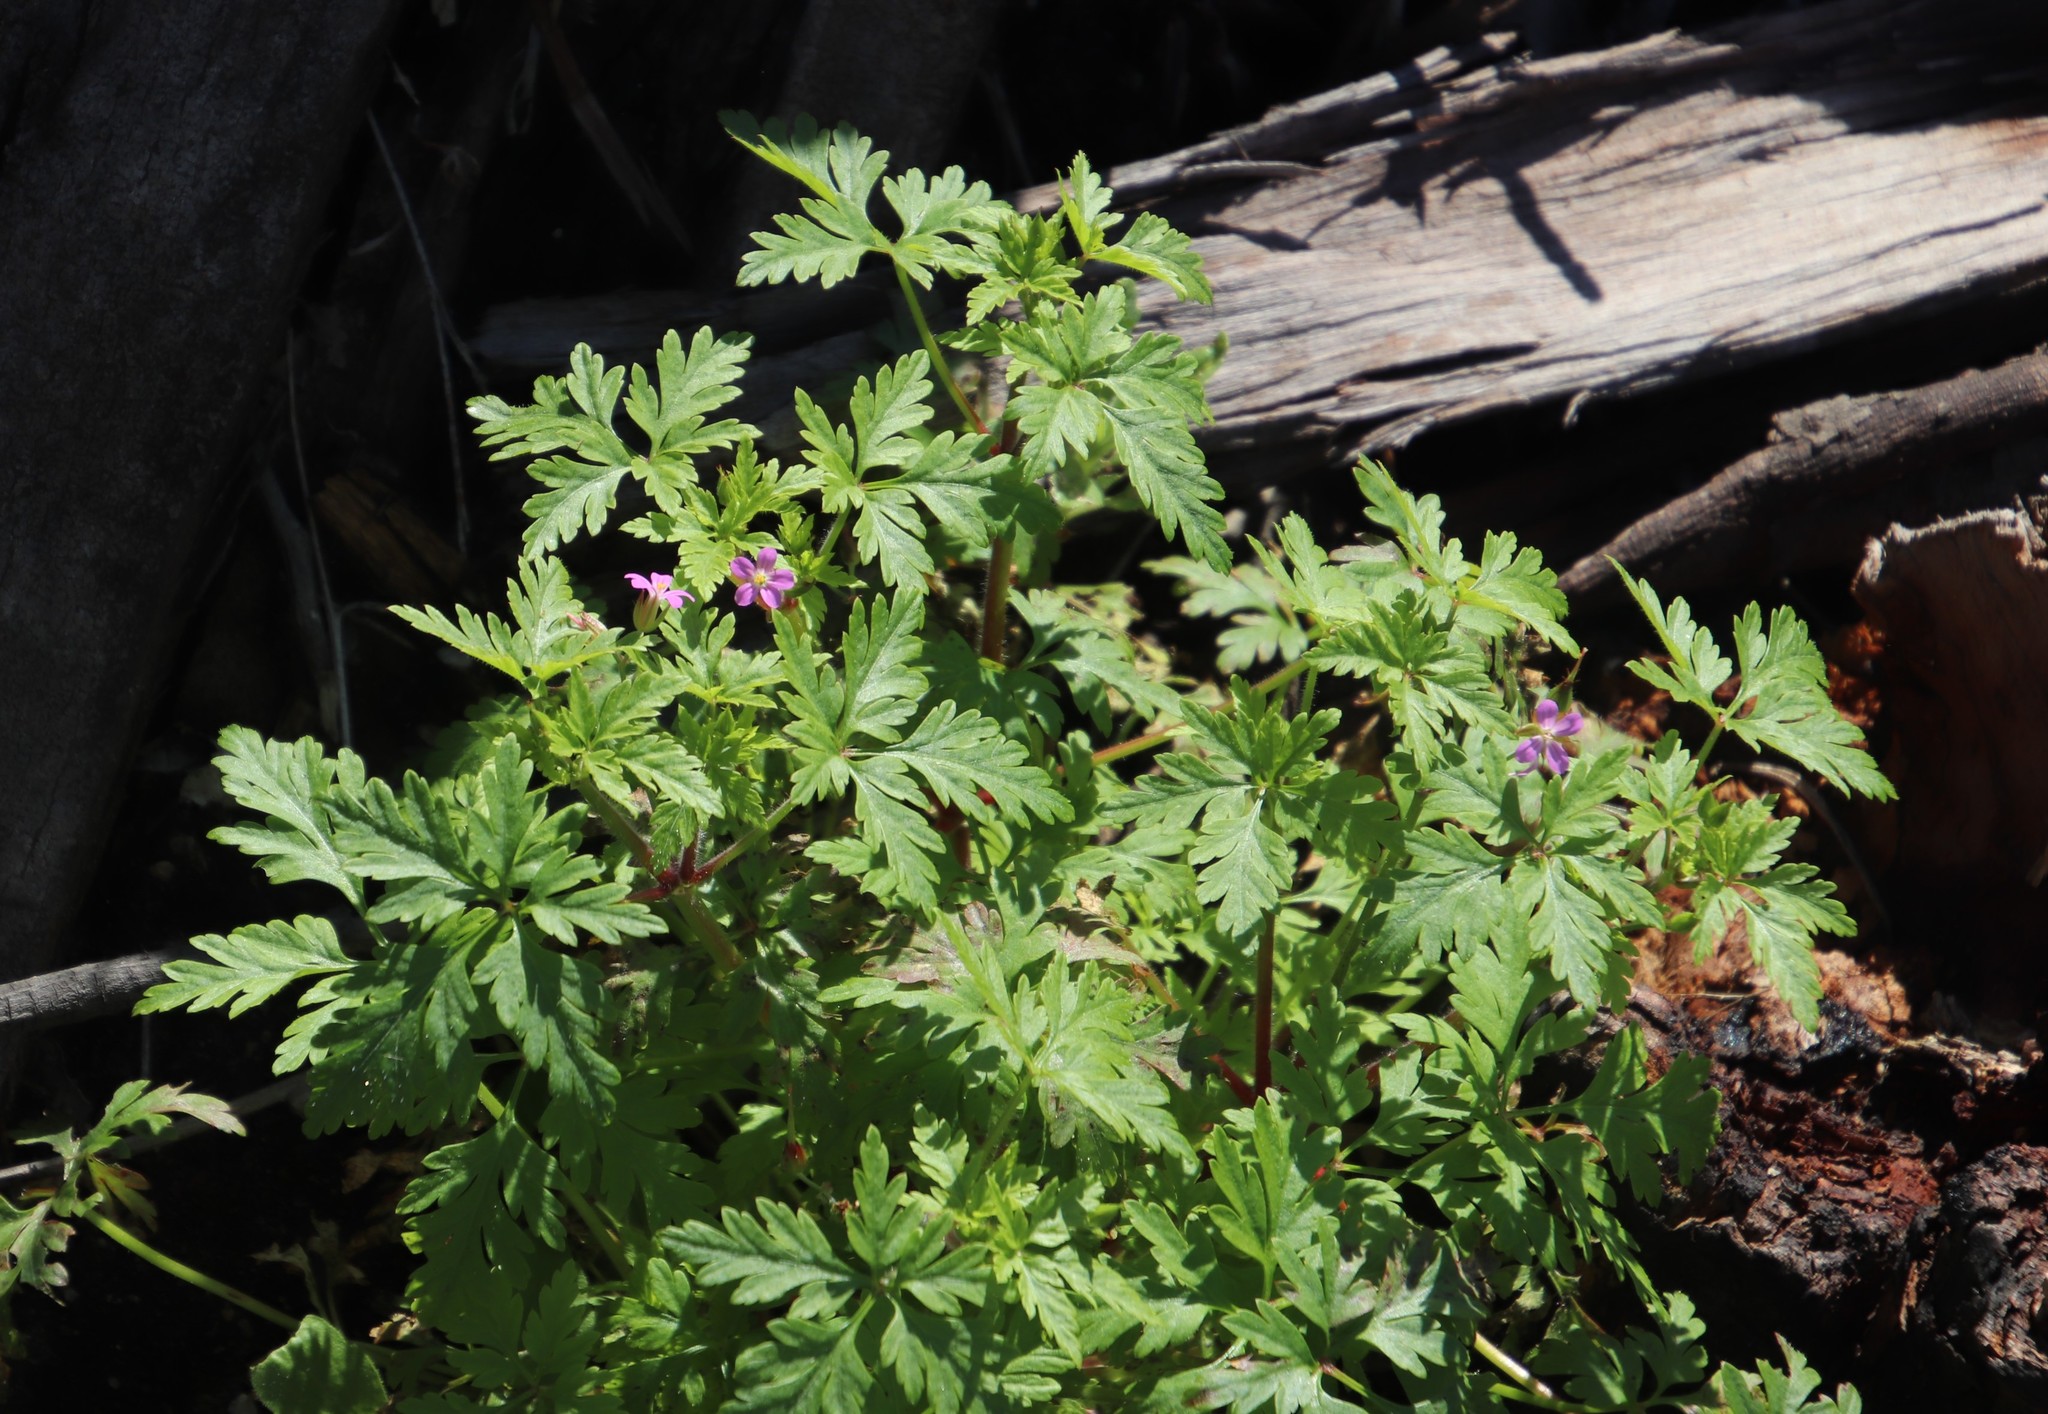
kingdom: Plantae
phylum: Tracheophyta
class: Magnoliopsida
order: Geraniales
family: Geraniaceae
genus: Geranium
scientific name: Geranium purpureum
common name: Little-robin
